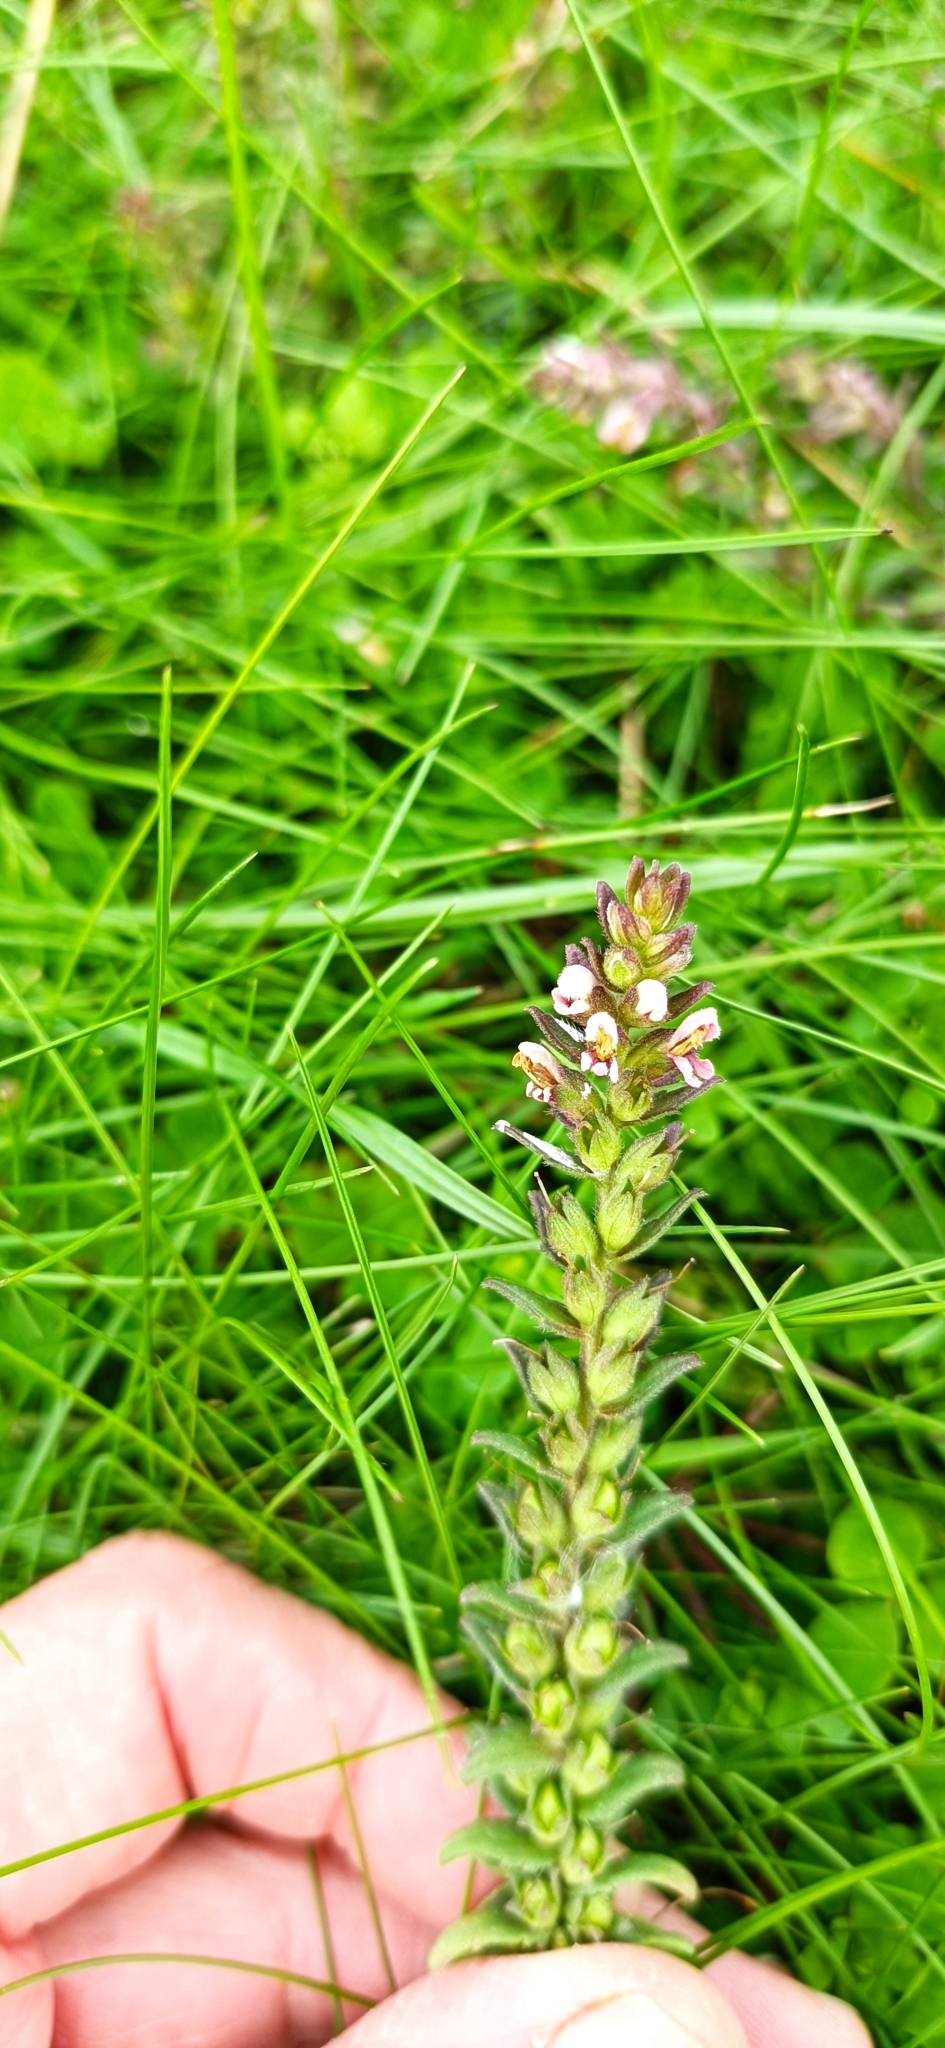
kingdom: Plantae
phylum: Tracheophyta
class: Magnoliopsida
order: Lamiales
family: Orobanchaceae
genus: Odontites
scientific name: Odontites vulgaris
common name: Broomrape
